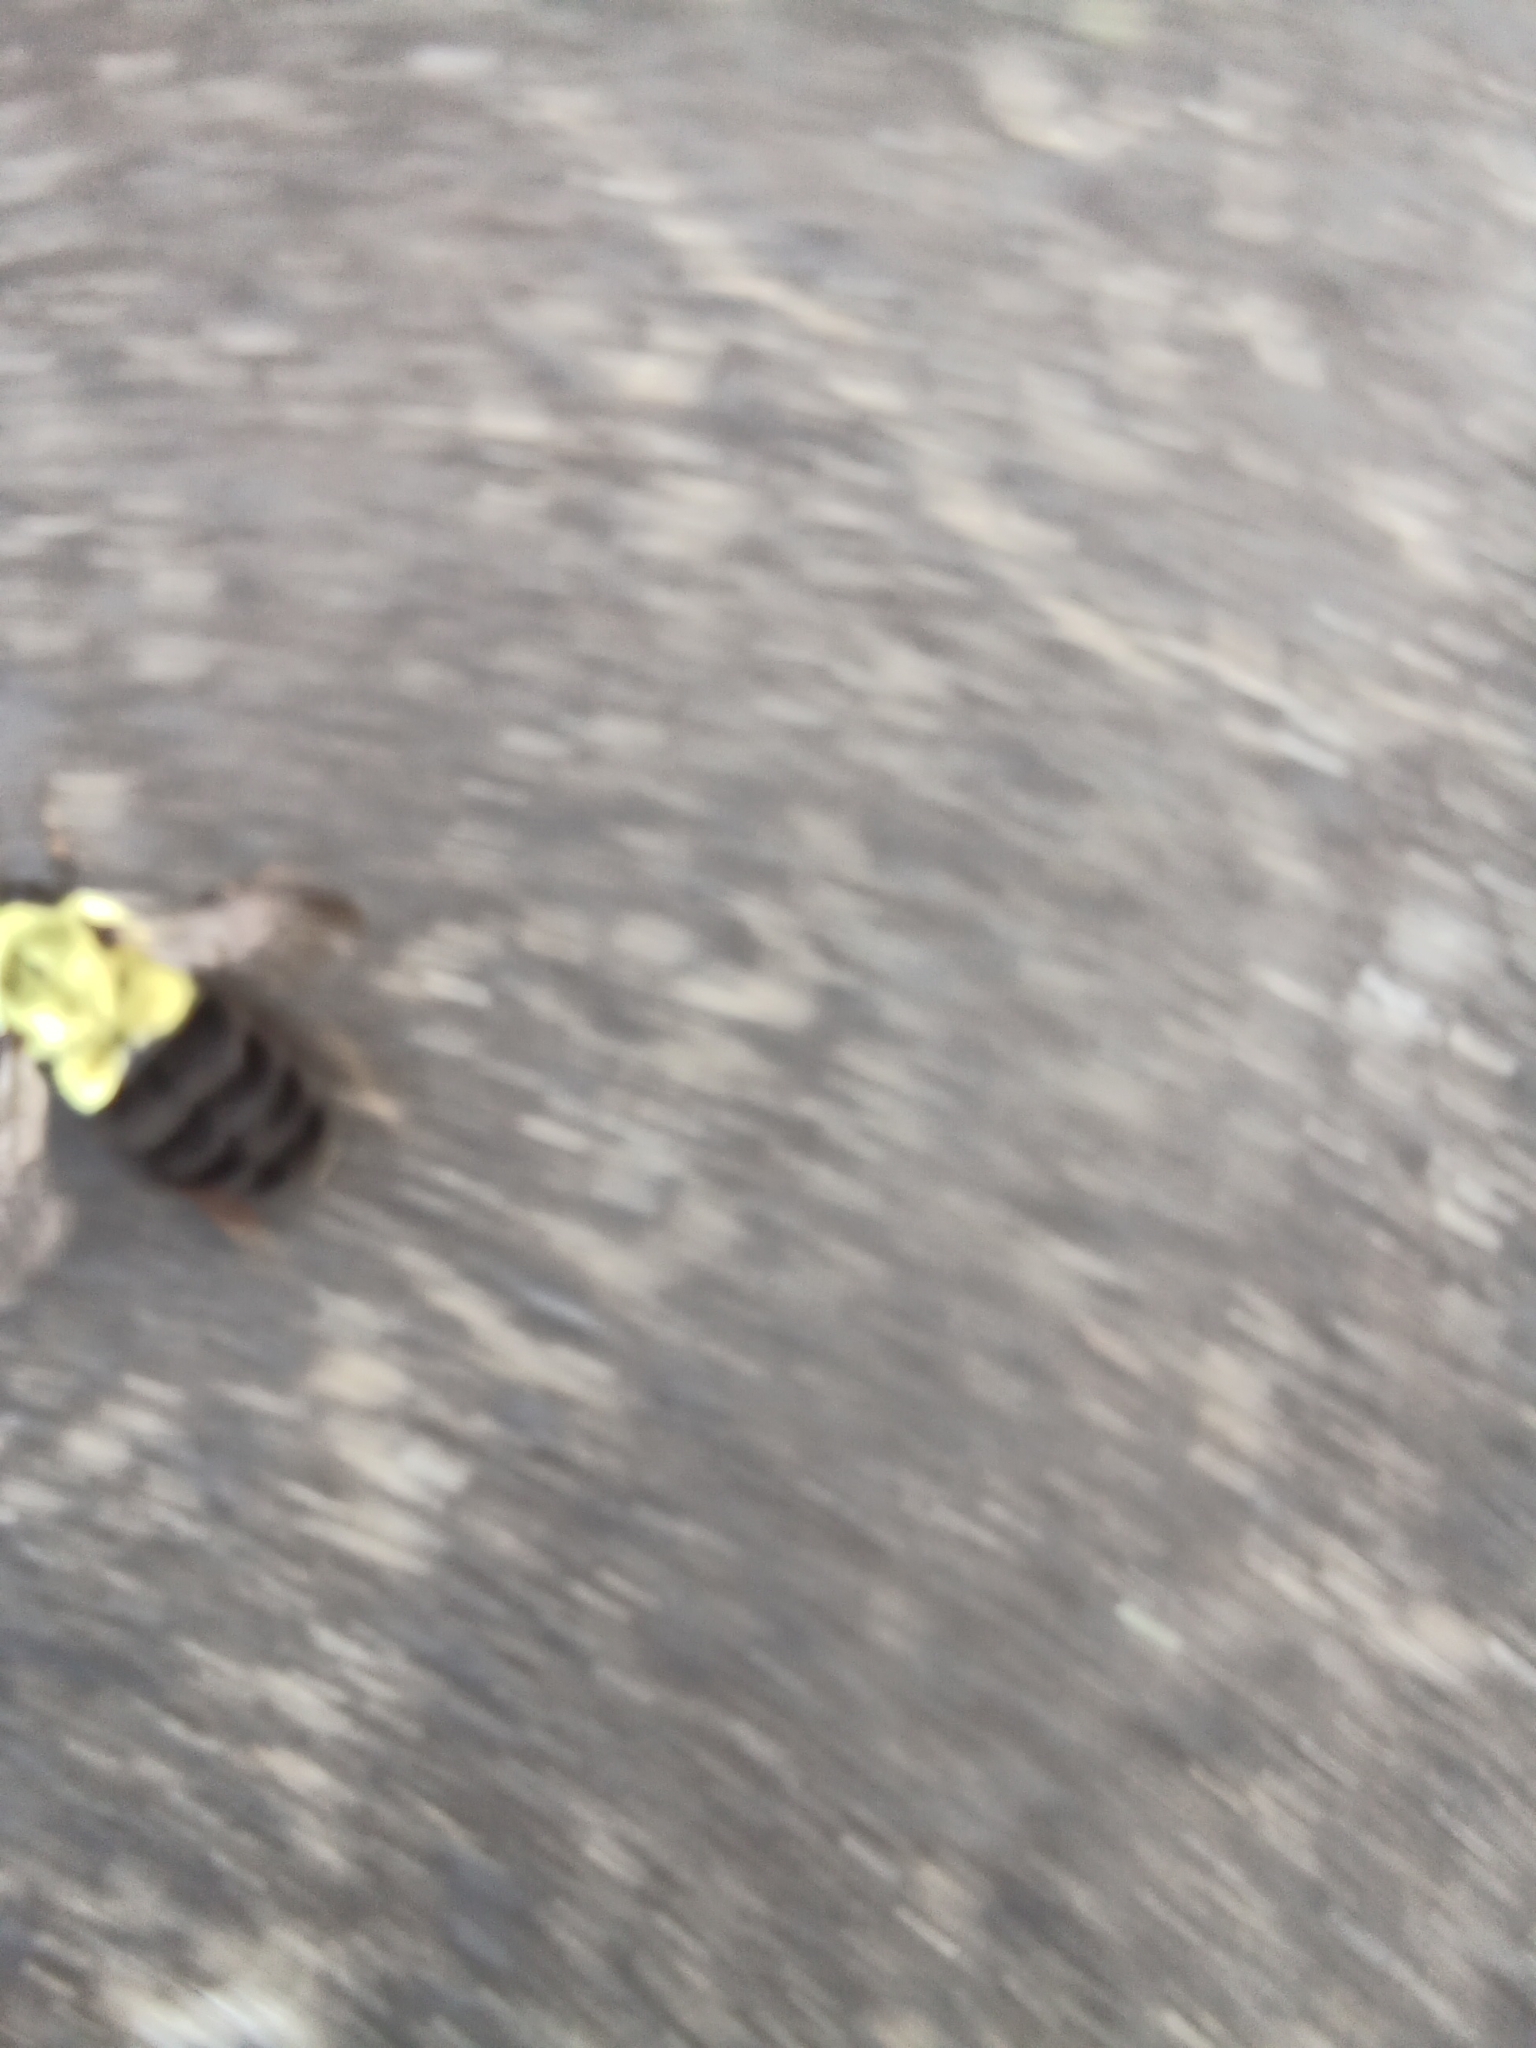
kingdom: Animalia
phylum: Arthropoda
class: Insecta
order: Hymenoptera
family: Apidae
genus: Bombus
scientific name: Bombus impatiens
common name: Common eastern bumble bee
